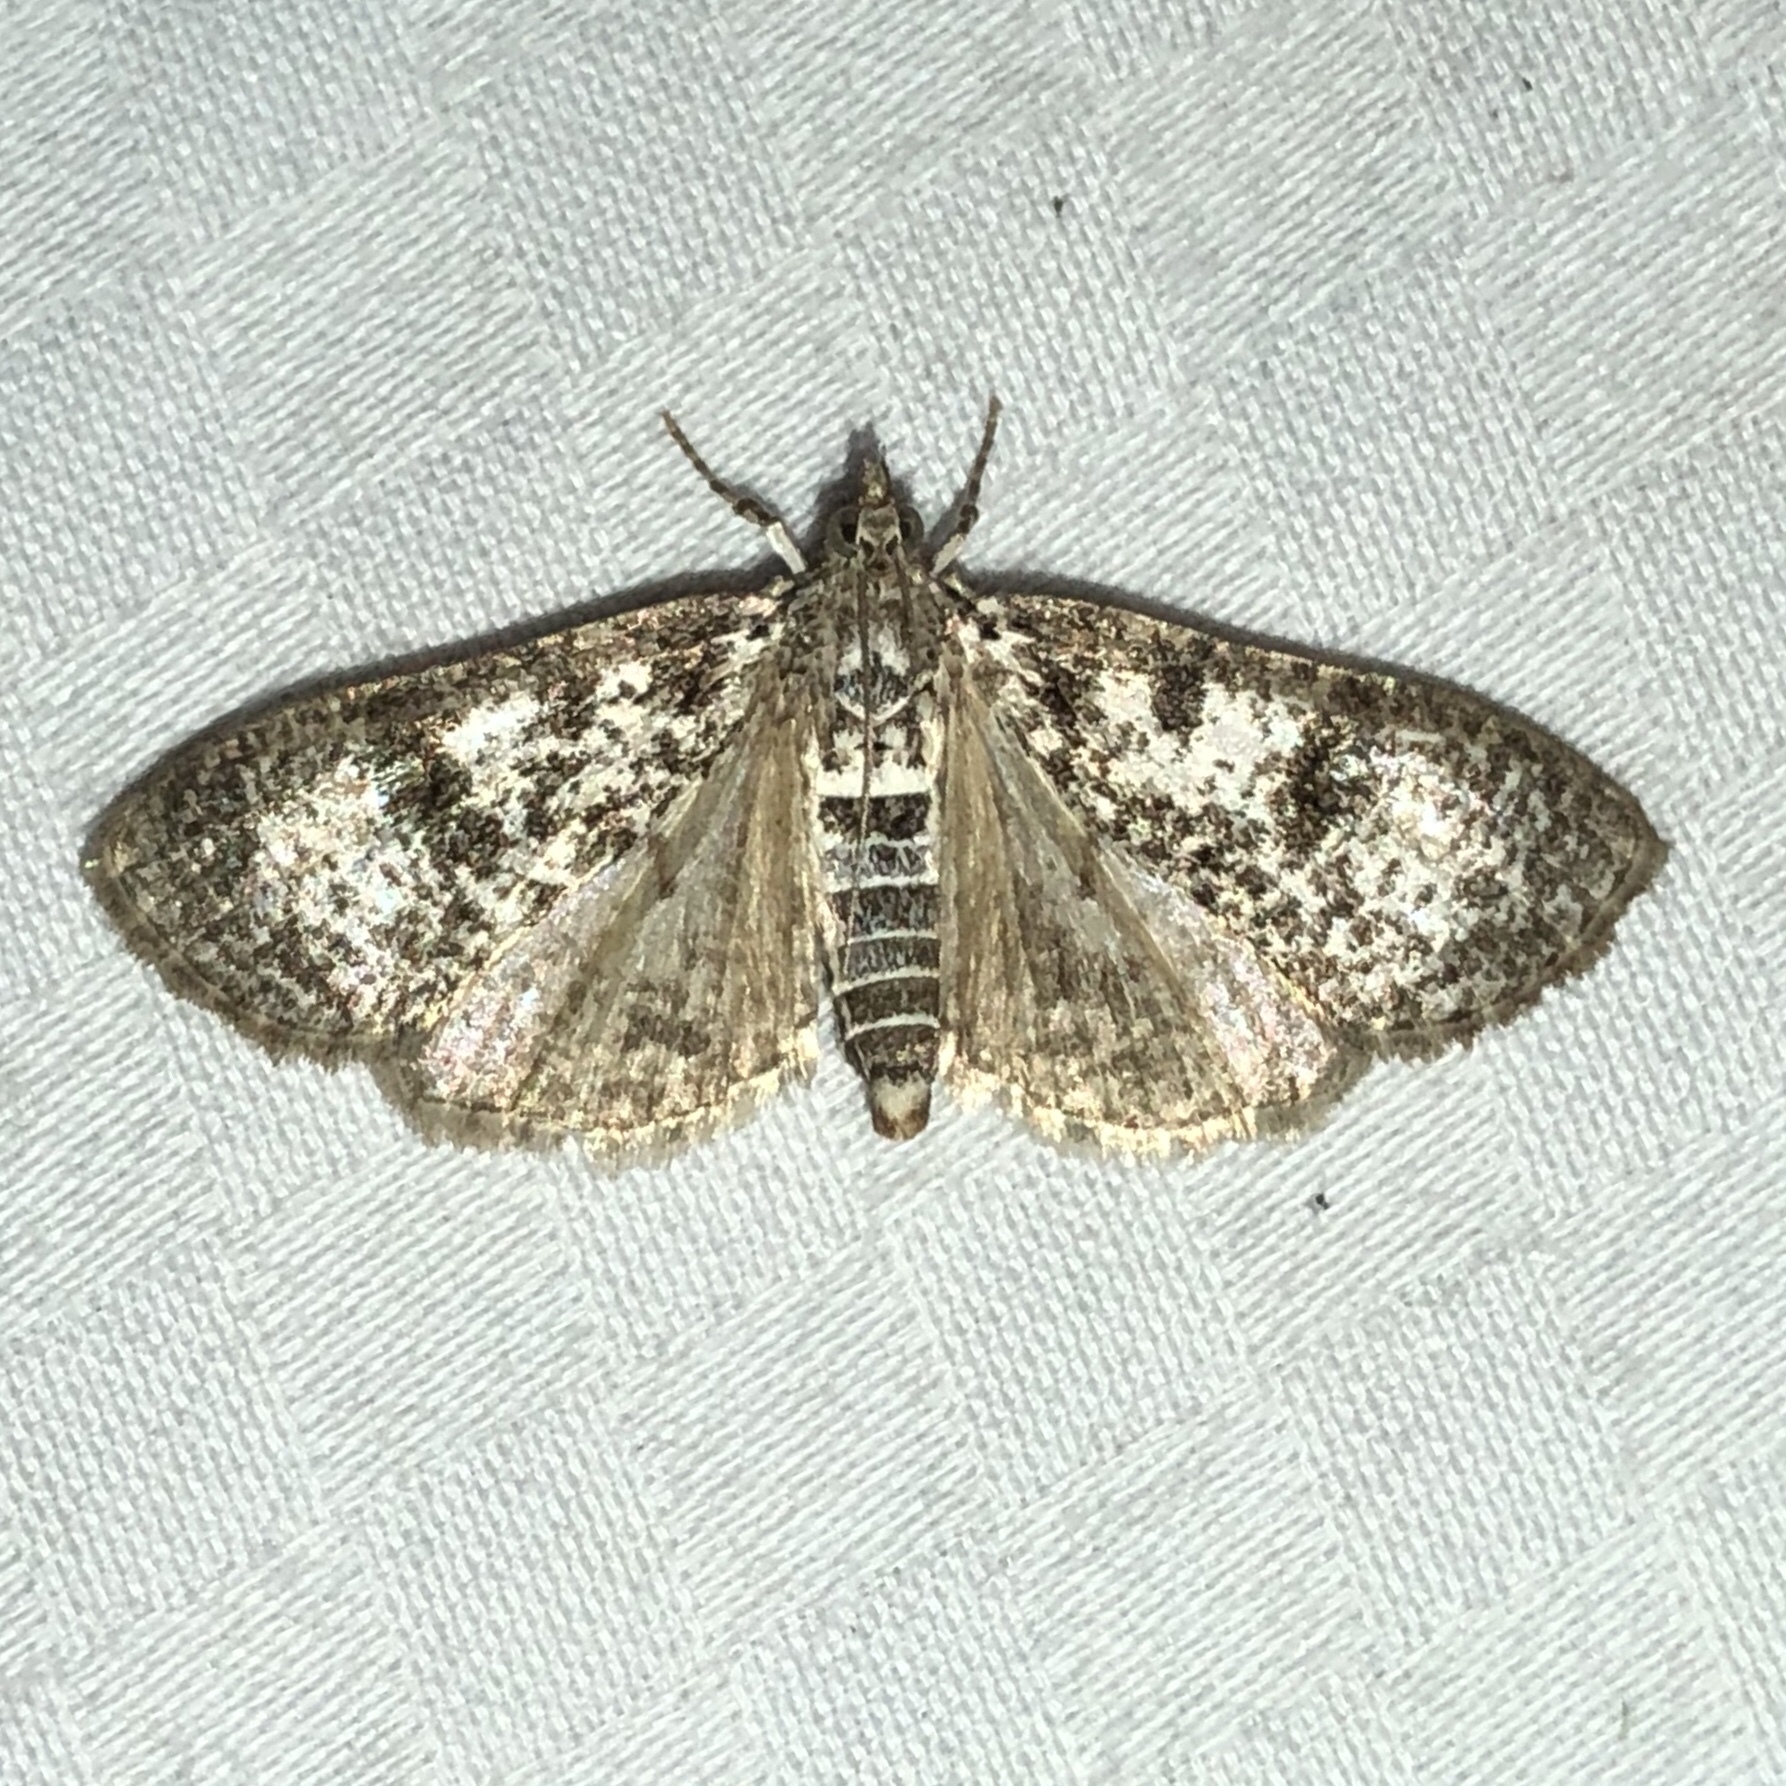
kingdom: Animalia
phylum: Arthropoda
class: Insecta
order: Lepidoptera
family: Crambidae
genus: Palpita
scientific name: Palpita magniferalis
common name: Splendid palpita moth
